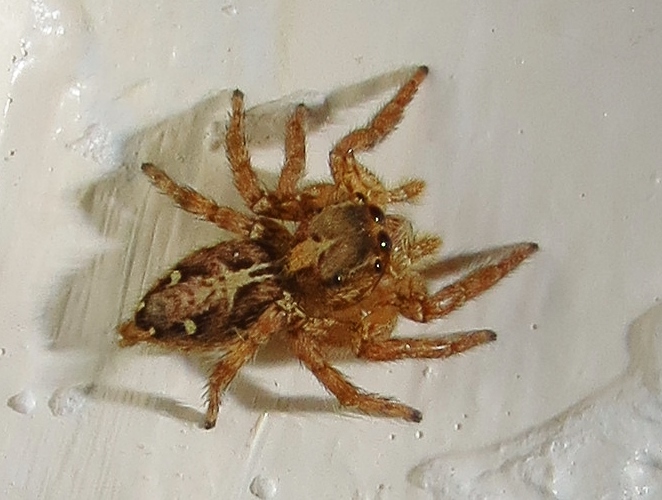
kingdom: Animalia
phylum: Arthropoda
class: Arachnida
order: Araneae
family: Salticidae
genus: Plexippus
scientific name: Plexippus paykulli
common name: Pantropical jumper
